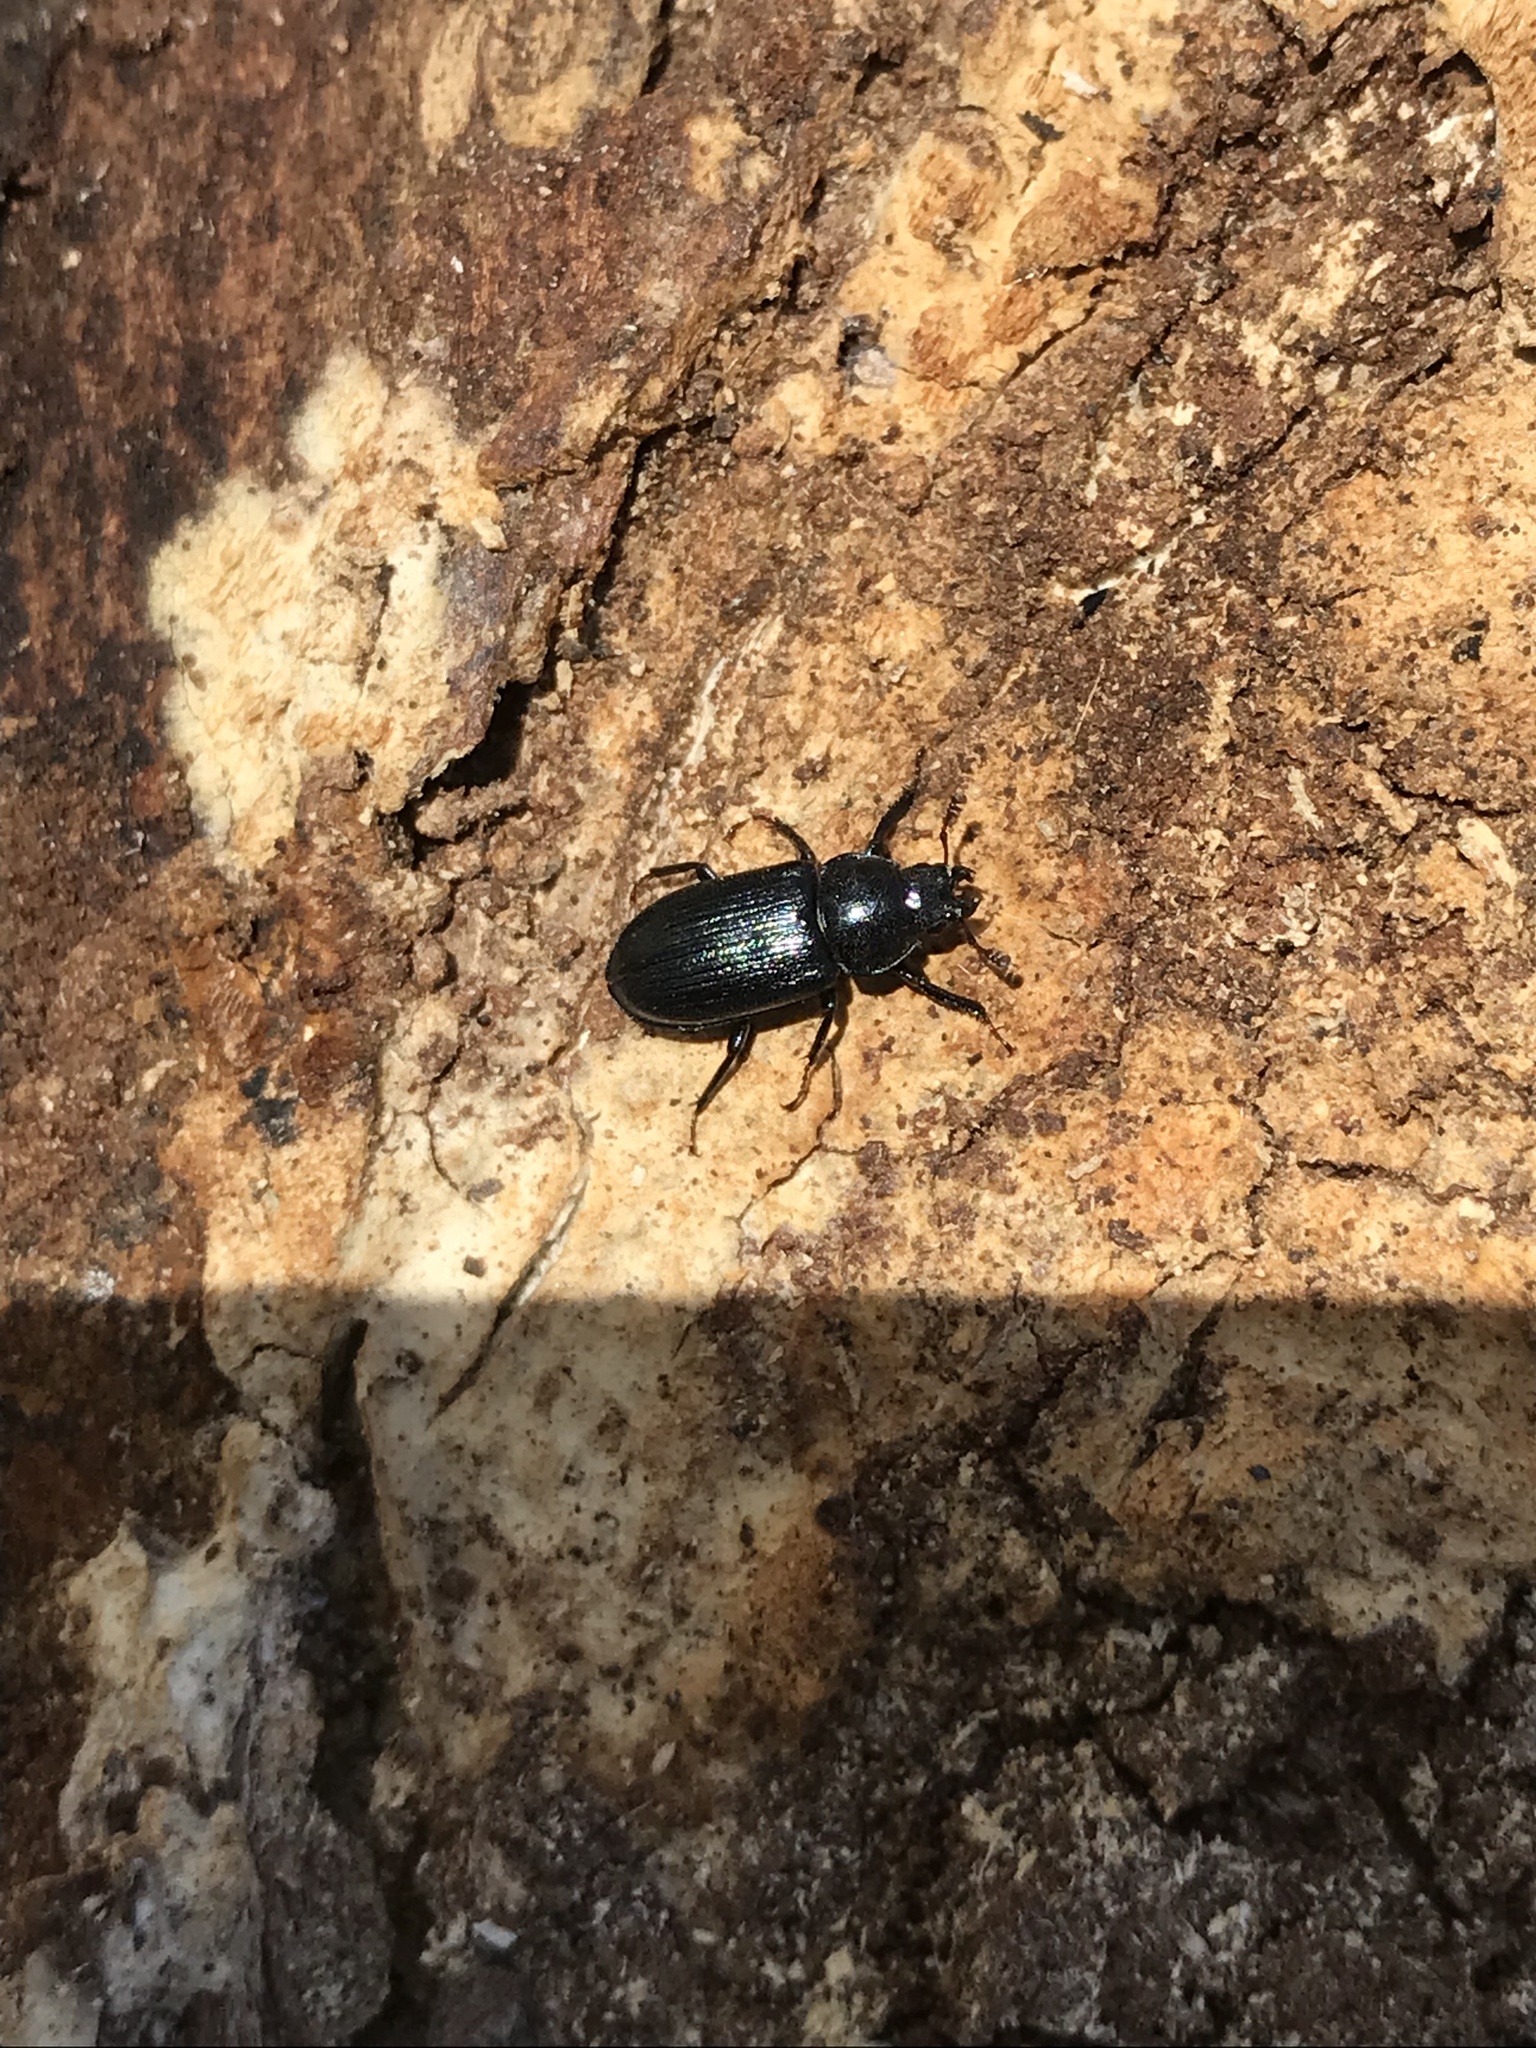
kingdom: Animalia
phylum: Arthropoda
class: Insecta
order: Coleoptera
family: Lucanidae
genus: Platycerus
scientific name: Platycerus quercus
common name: Oak stag beetle
